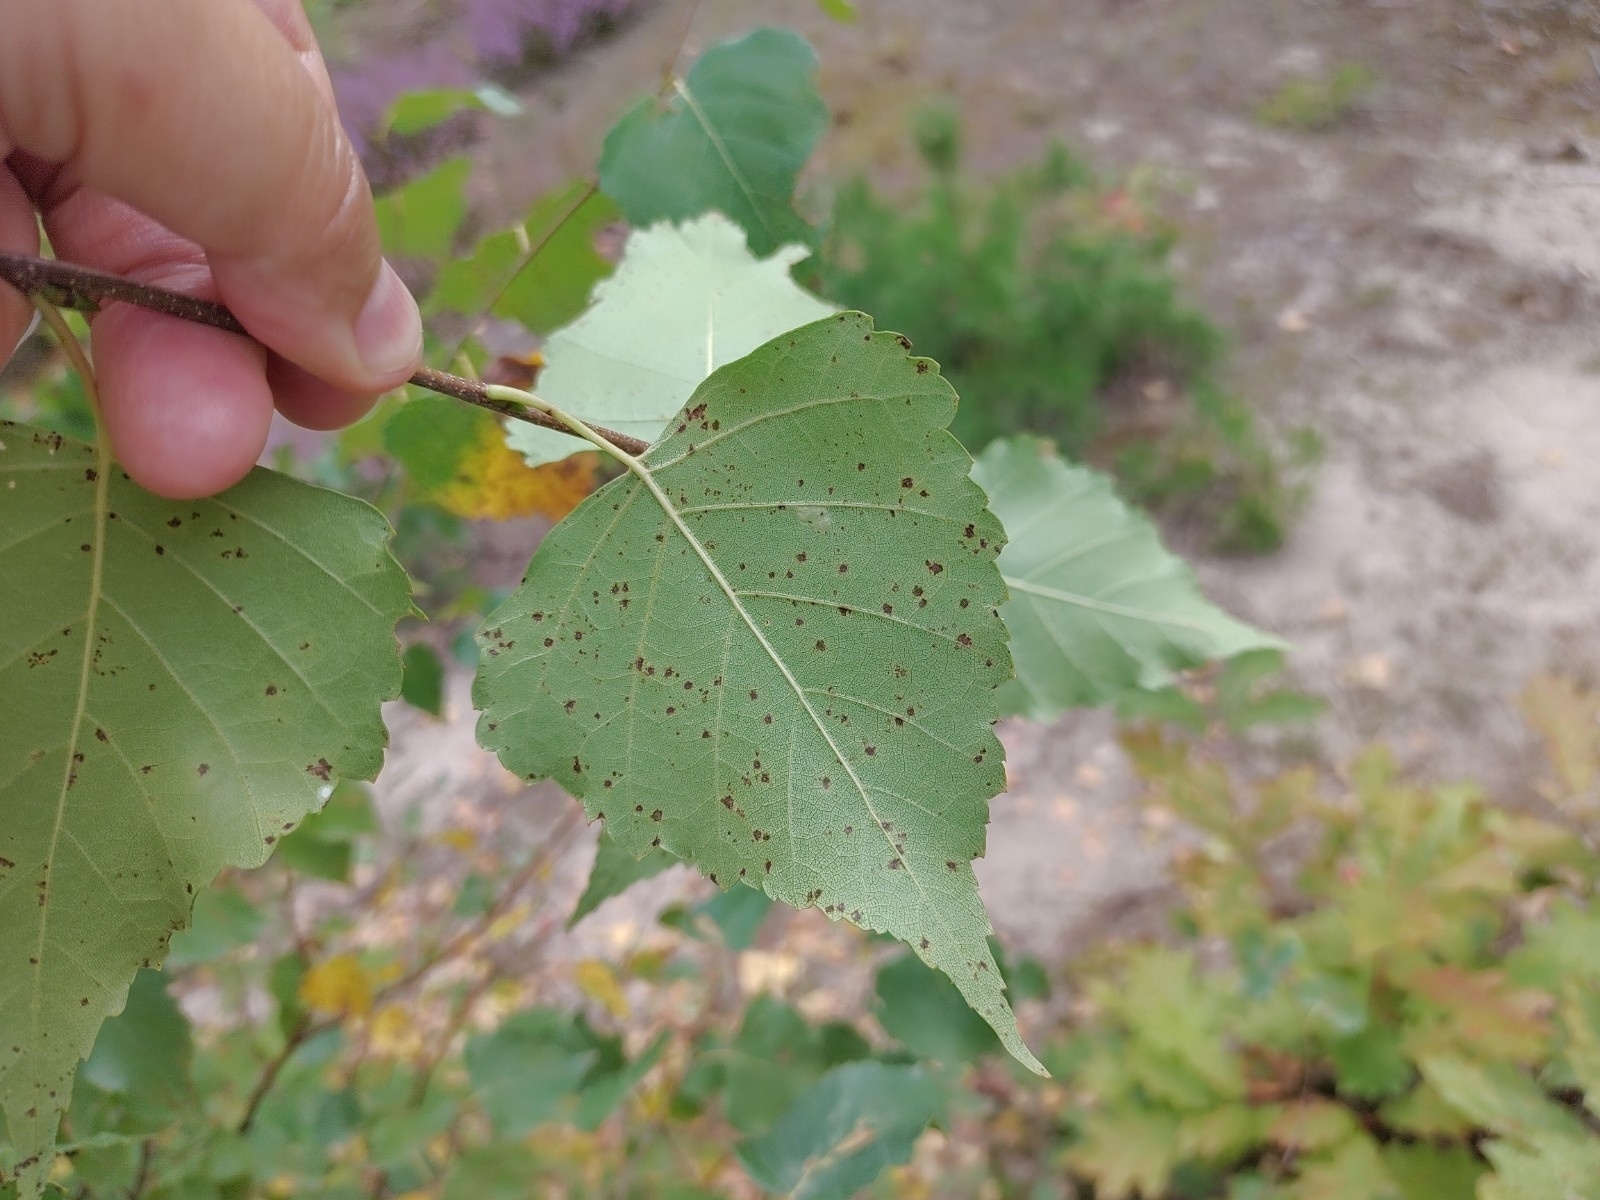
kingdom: Plantae
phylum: Tracheophyta
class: Magnoliopsida
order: Fagales
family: Betulaceae
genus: Betula
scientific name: Betula pendula
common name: Silver birch
